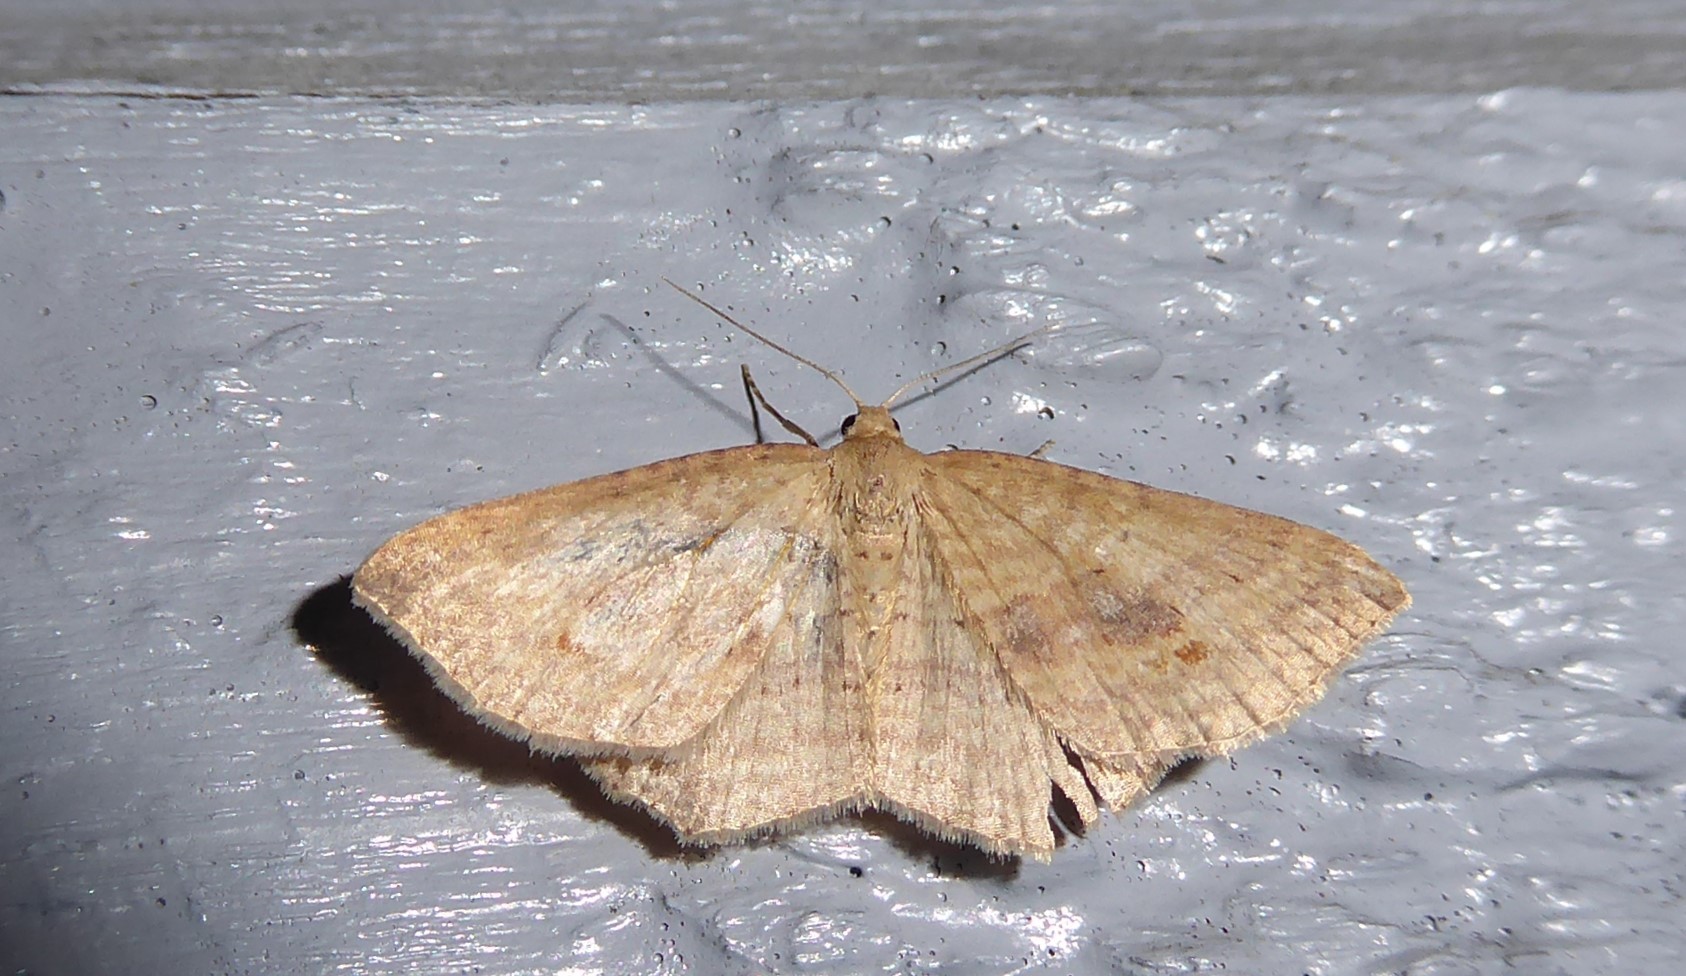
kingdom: Animalia
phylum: Arthropoda
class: Insecta
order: Lepidoptera
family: Geometridae
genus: Epicyme
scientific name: Epicyme rubropunctaria
